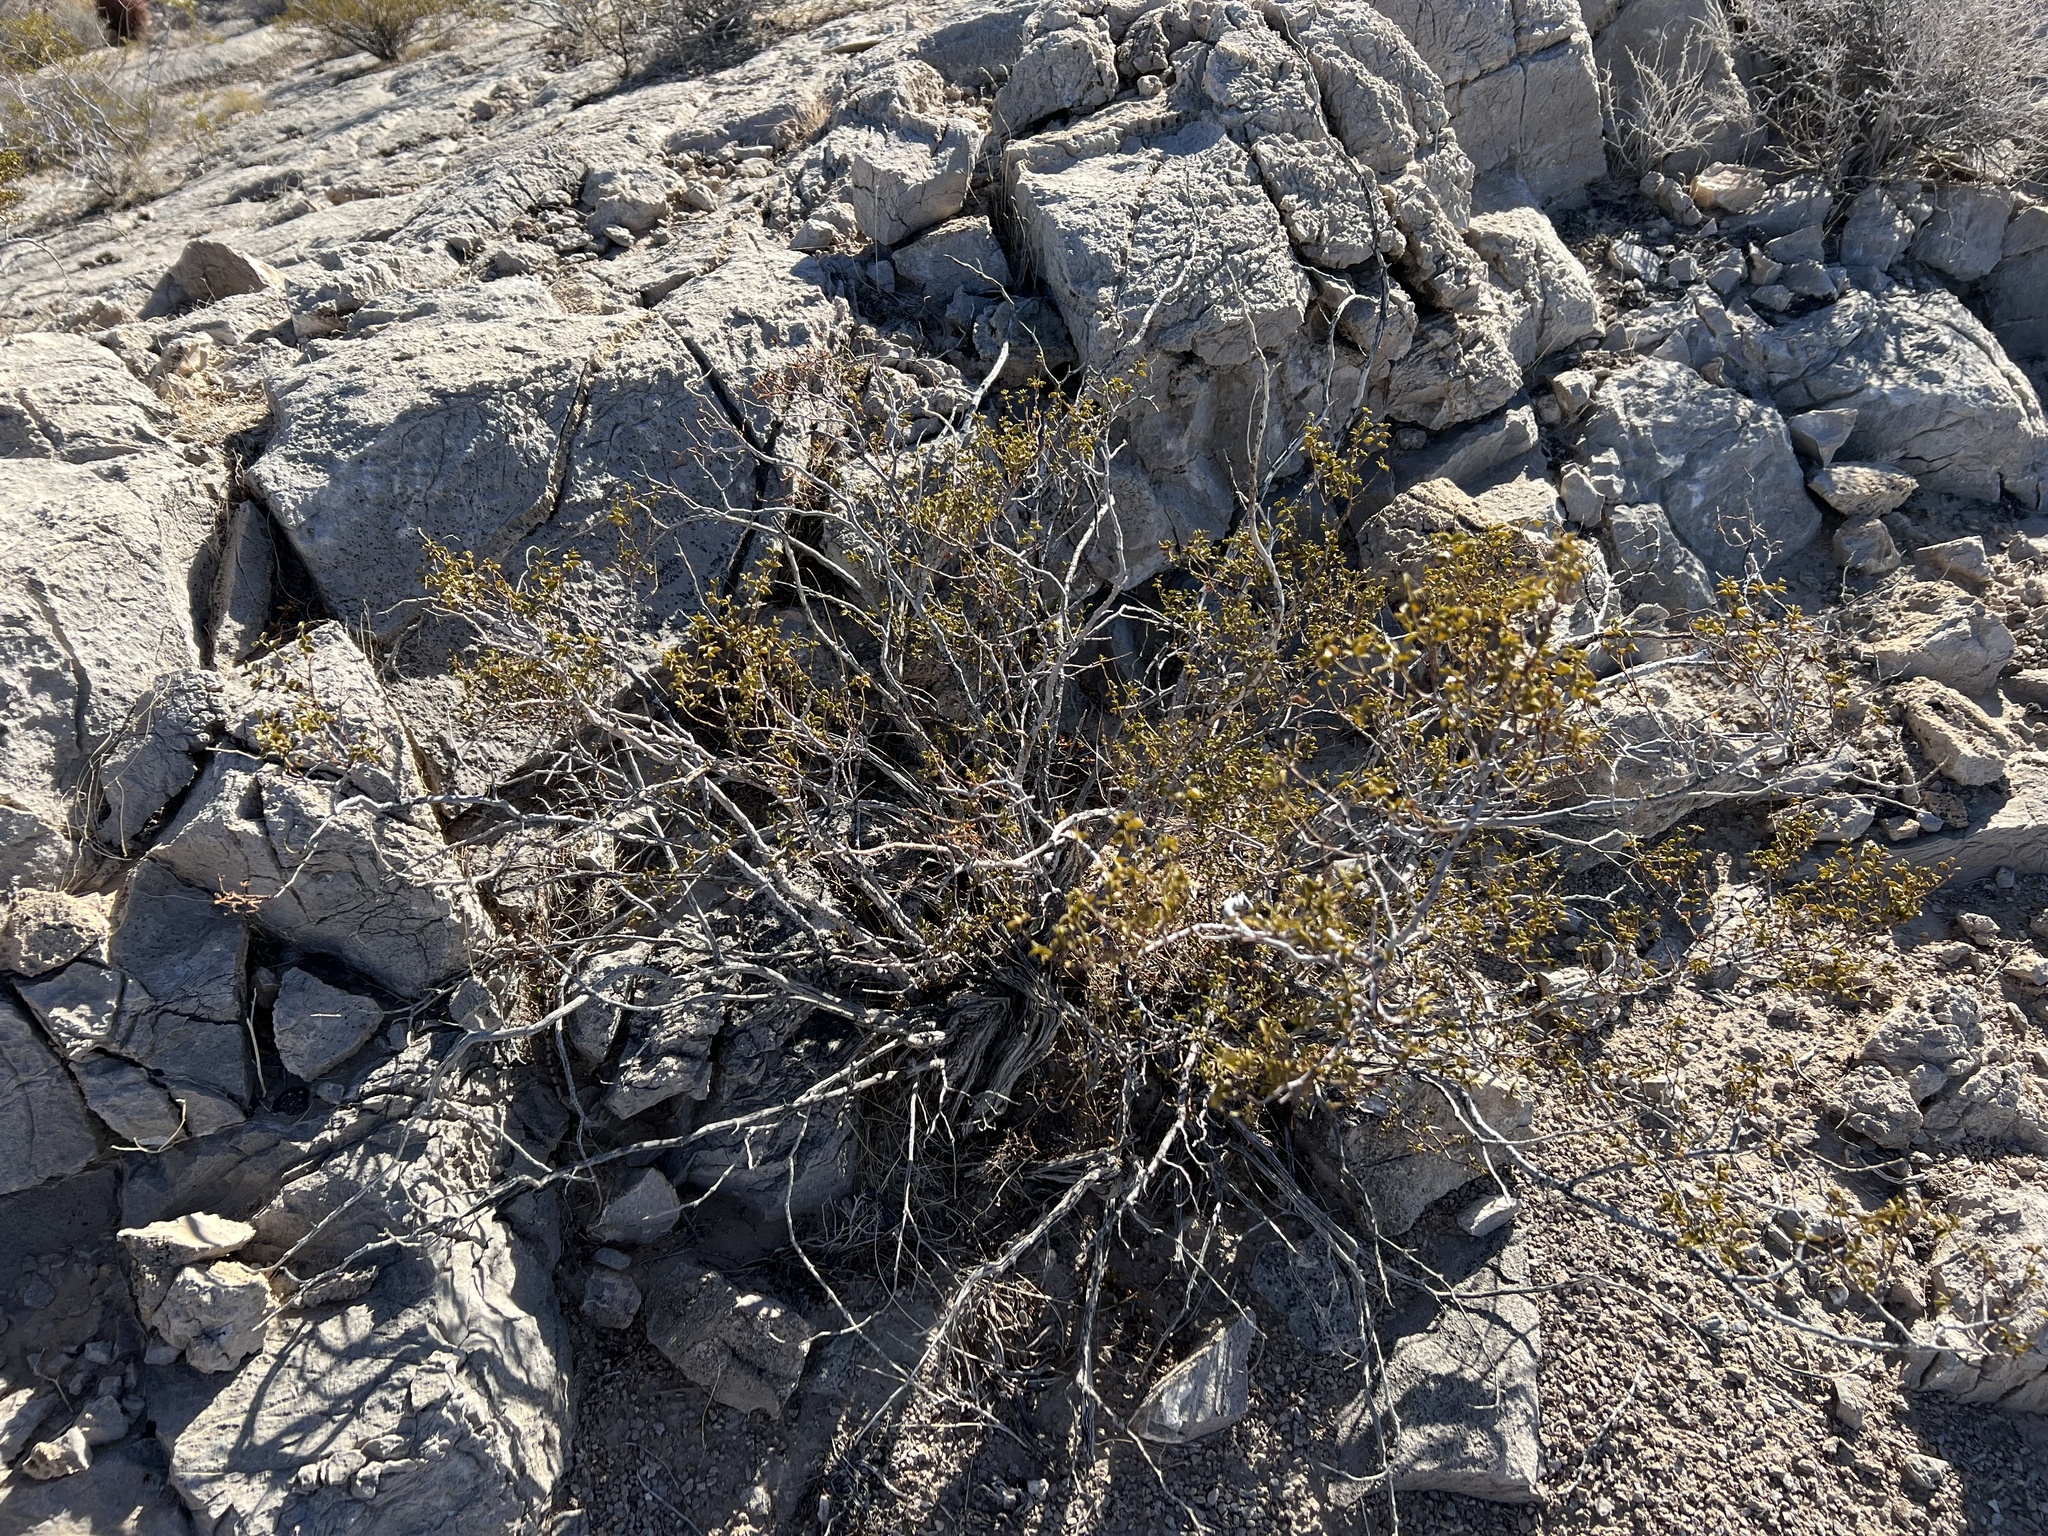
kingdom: Plantae
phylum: Tracheophyta
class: Magnoliopsida
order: Zygophyllales
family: Zygophyllaceae
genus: Larrea
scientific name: Larrea tridentata
